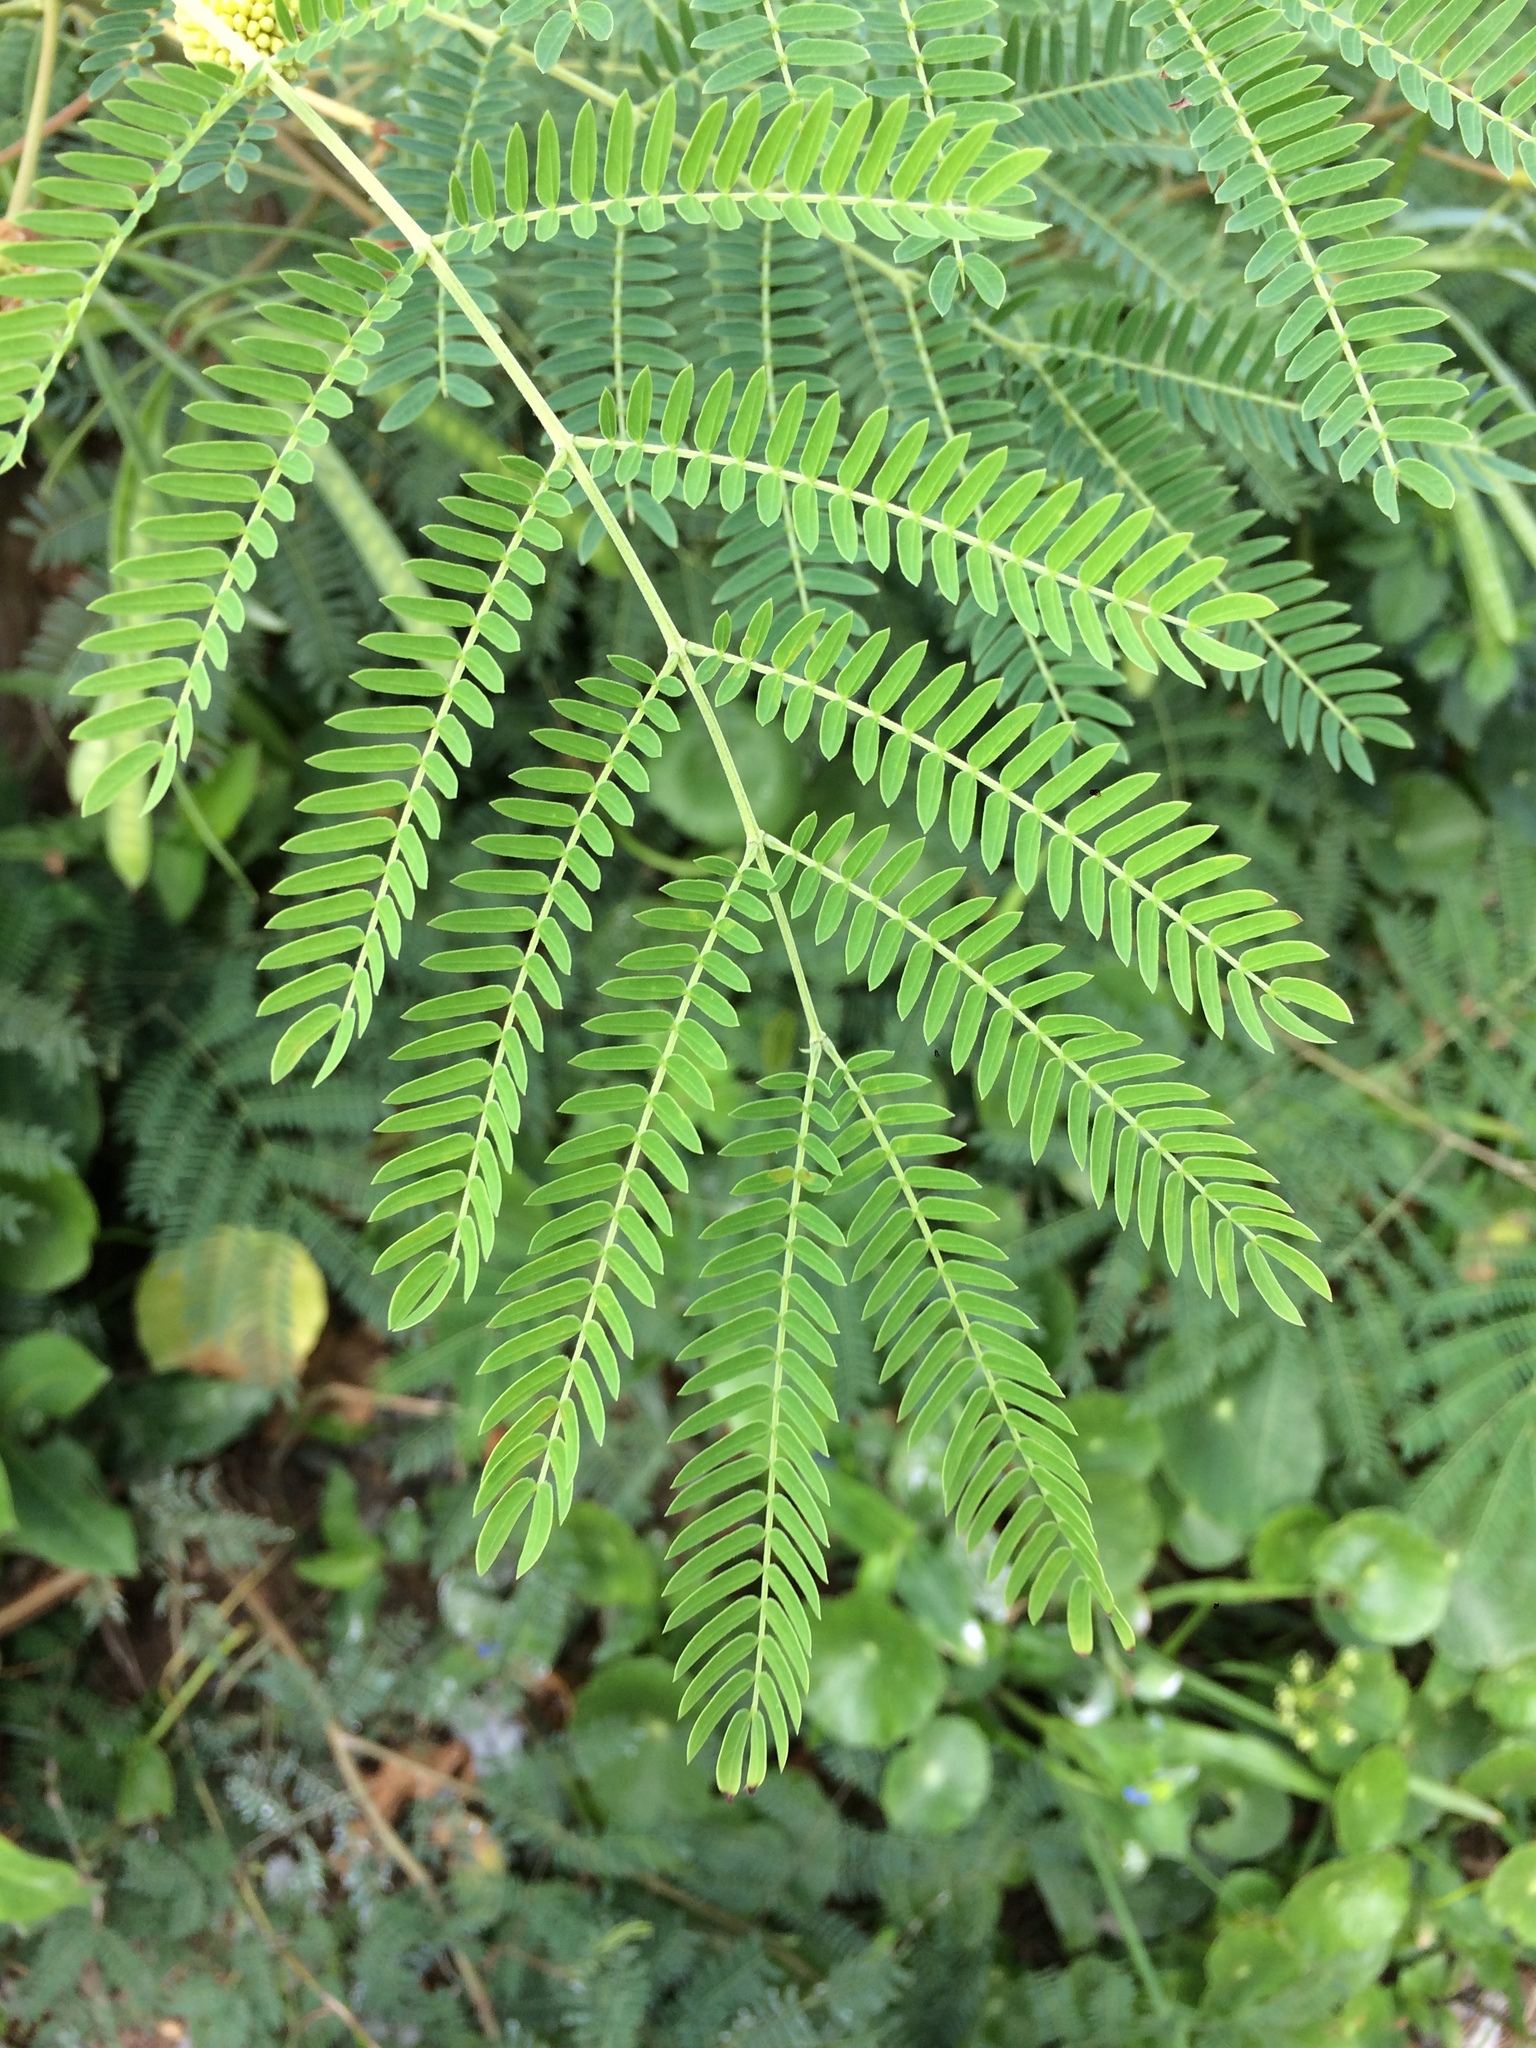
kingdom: Plantae
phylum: Tracheophyta
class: Magnoliopsida
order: Fabales
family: Fabaceae
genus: Leucaena
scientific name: Leucaena leucocephala
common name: White leadtree
